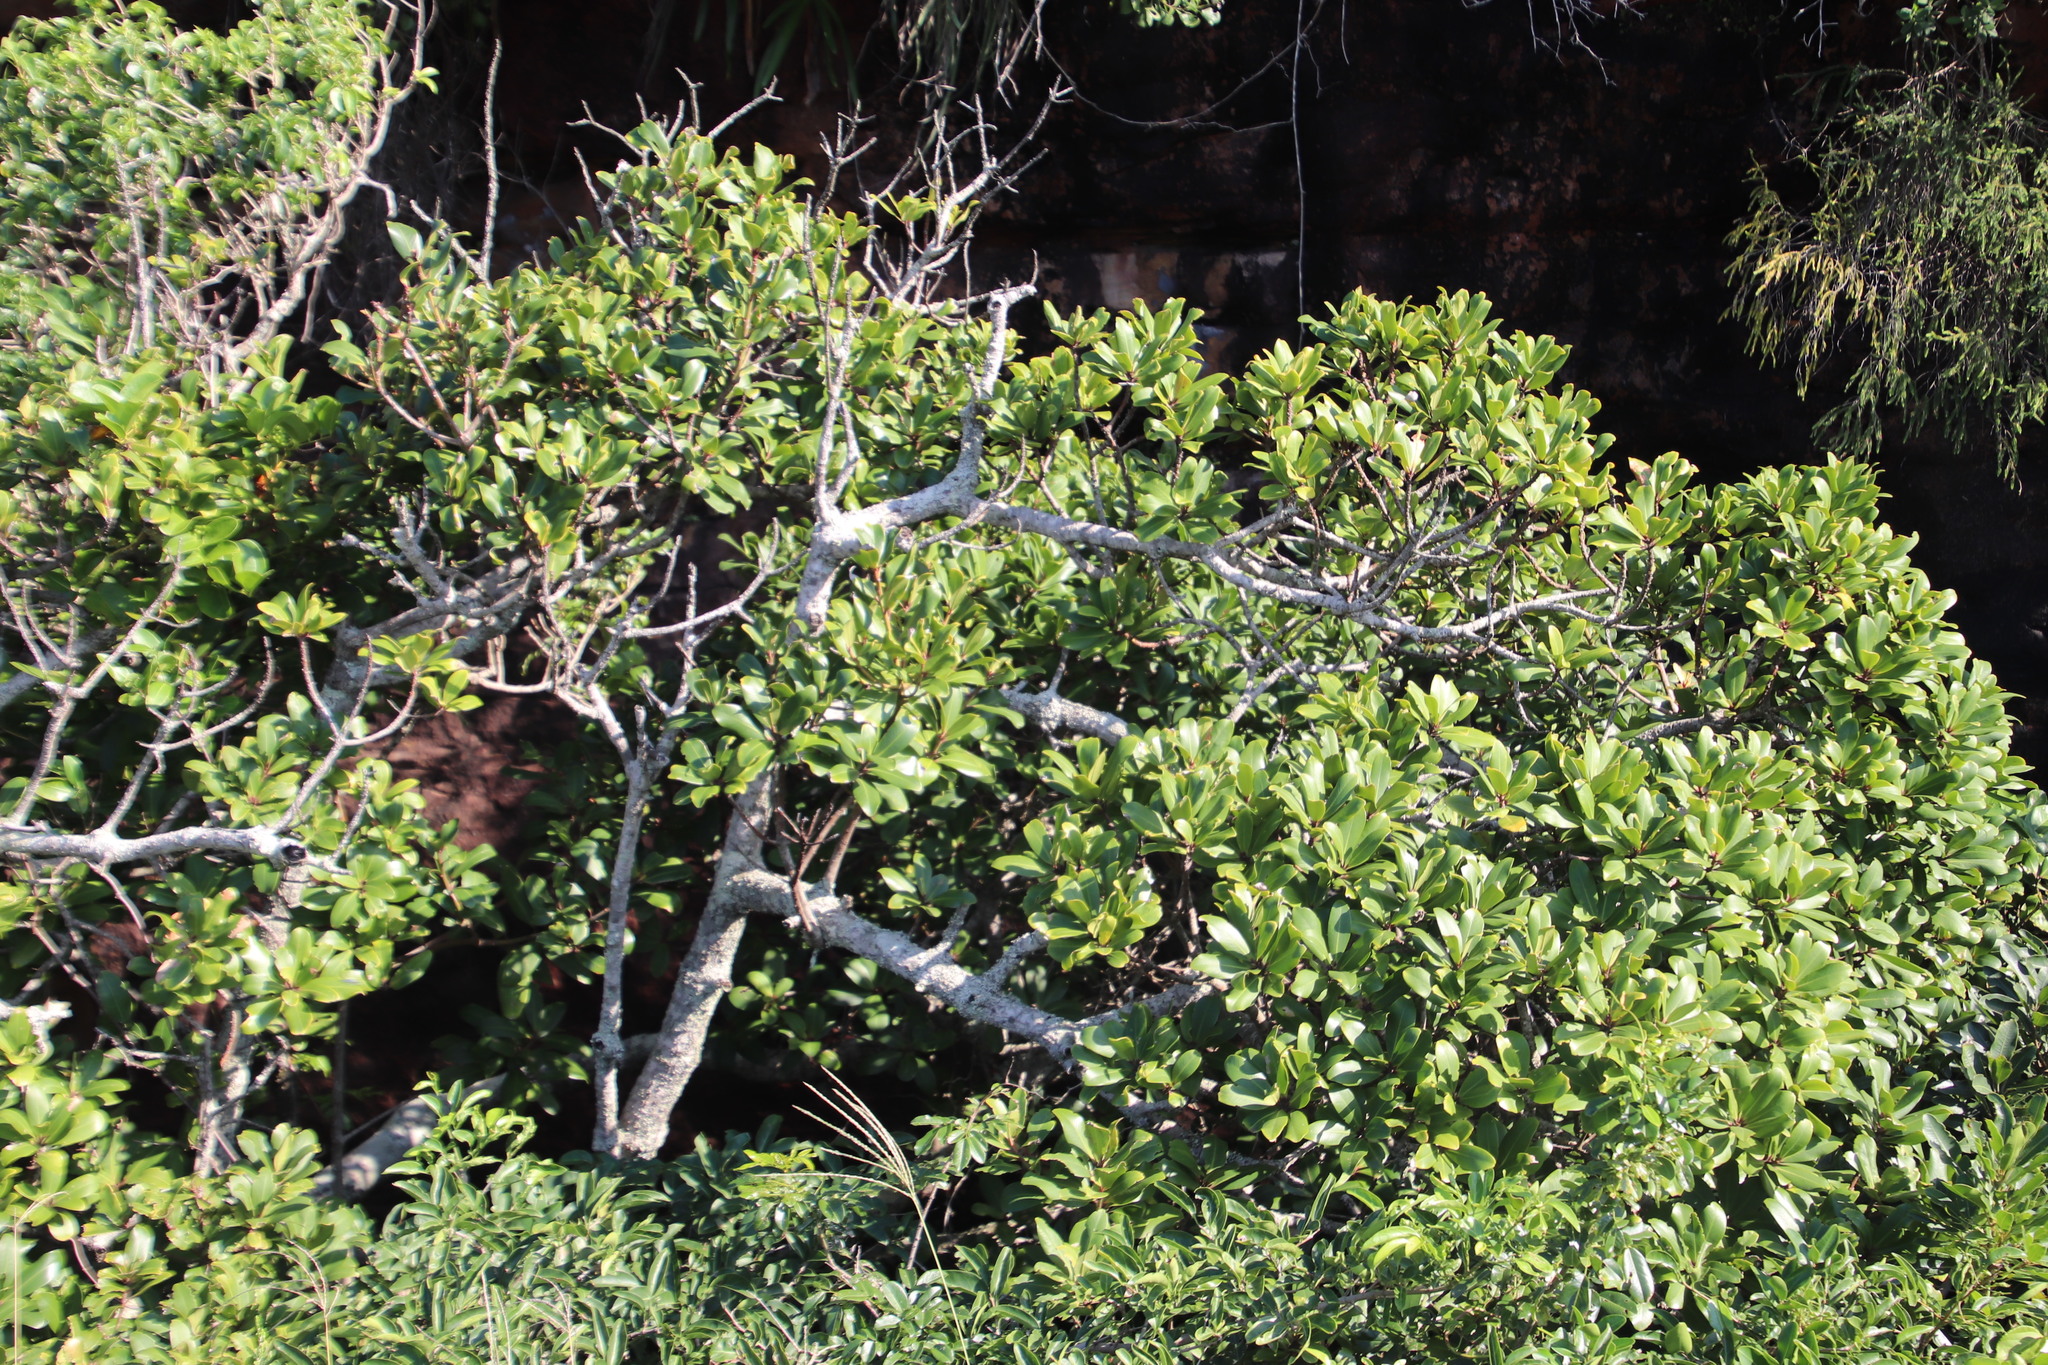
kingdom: Plantae
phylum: Tracheophyta
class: Magnoliopsida
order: Ericales
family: Primulaceae
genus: Myrsine
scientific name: Myrsine melanophloeos
